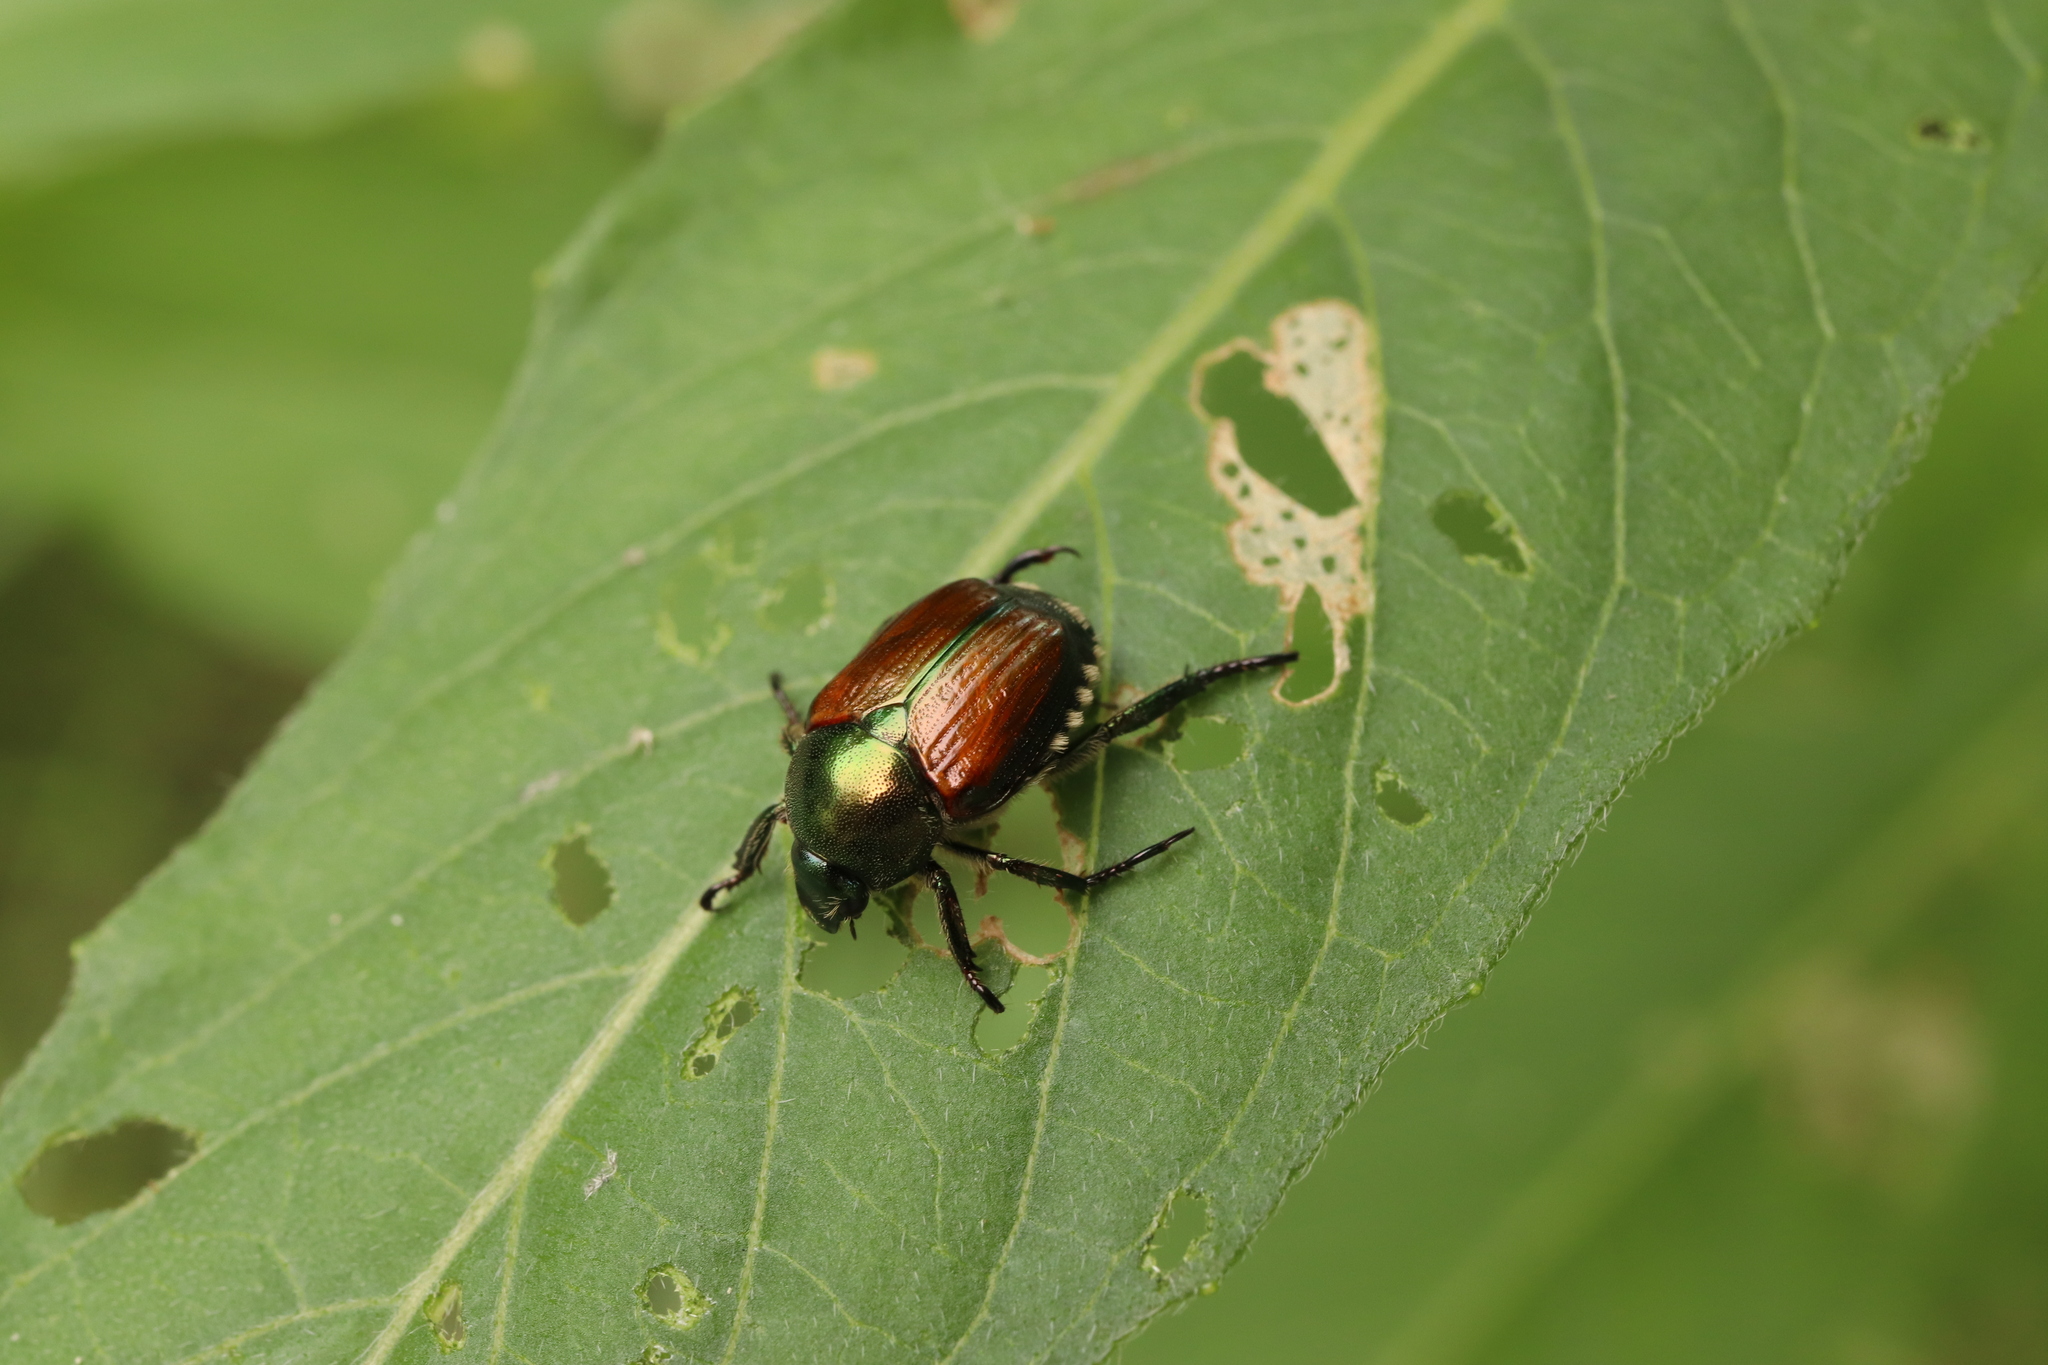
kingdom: Animalia
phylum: Arthropoda
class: Insecta
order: Coleoptera
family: Scarabaeidae
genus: Popillia
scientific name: Popillia japonica
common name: Japanese beetle
